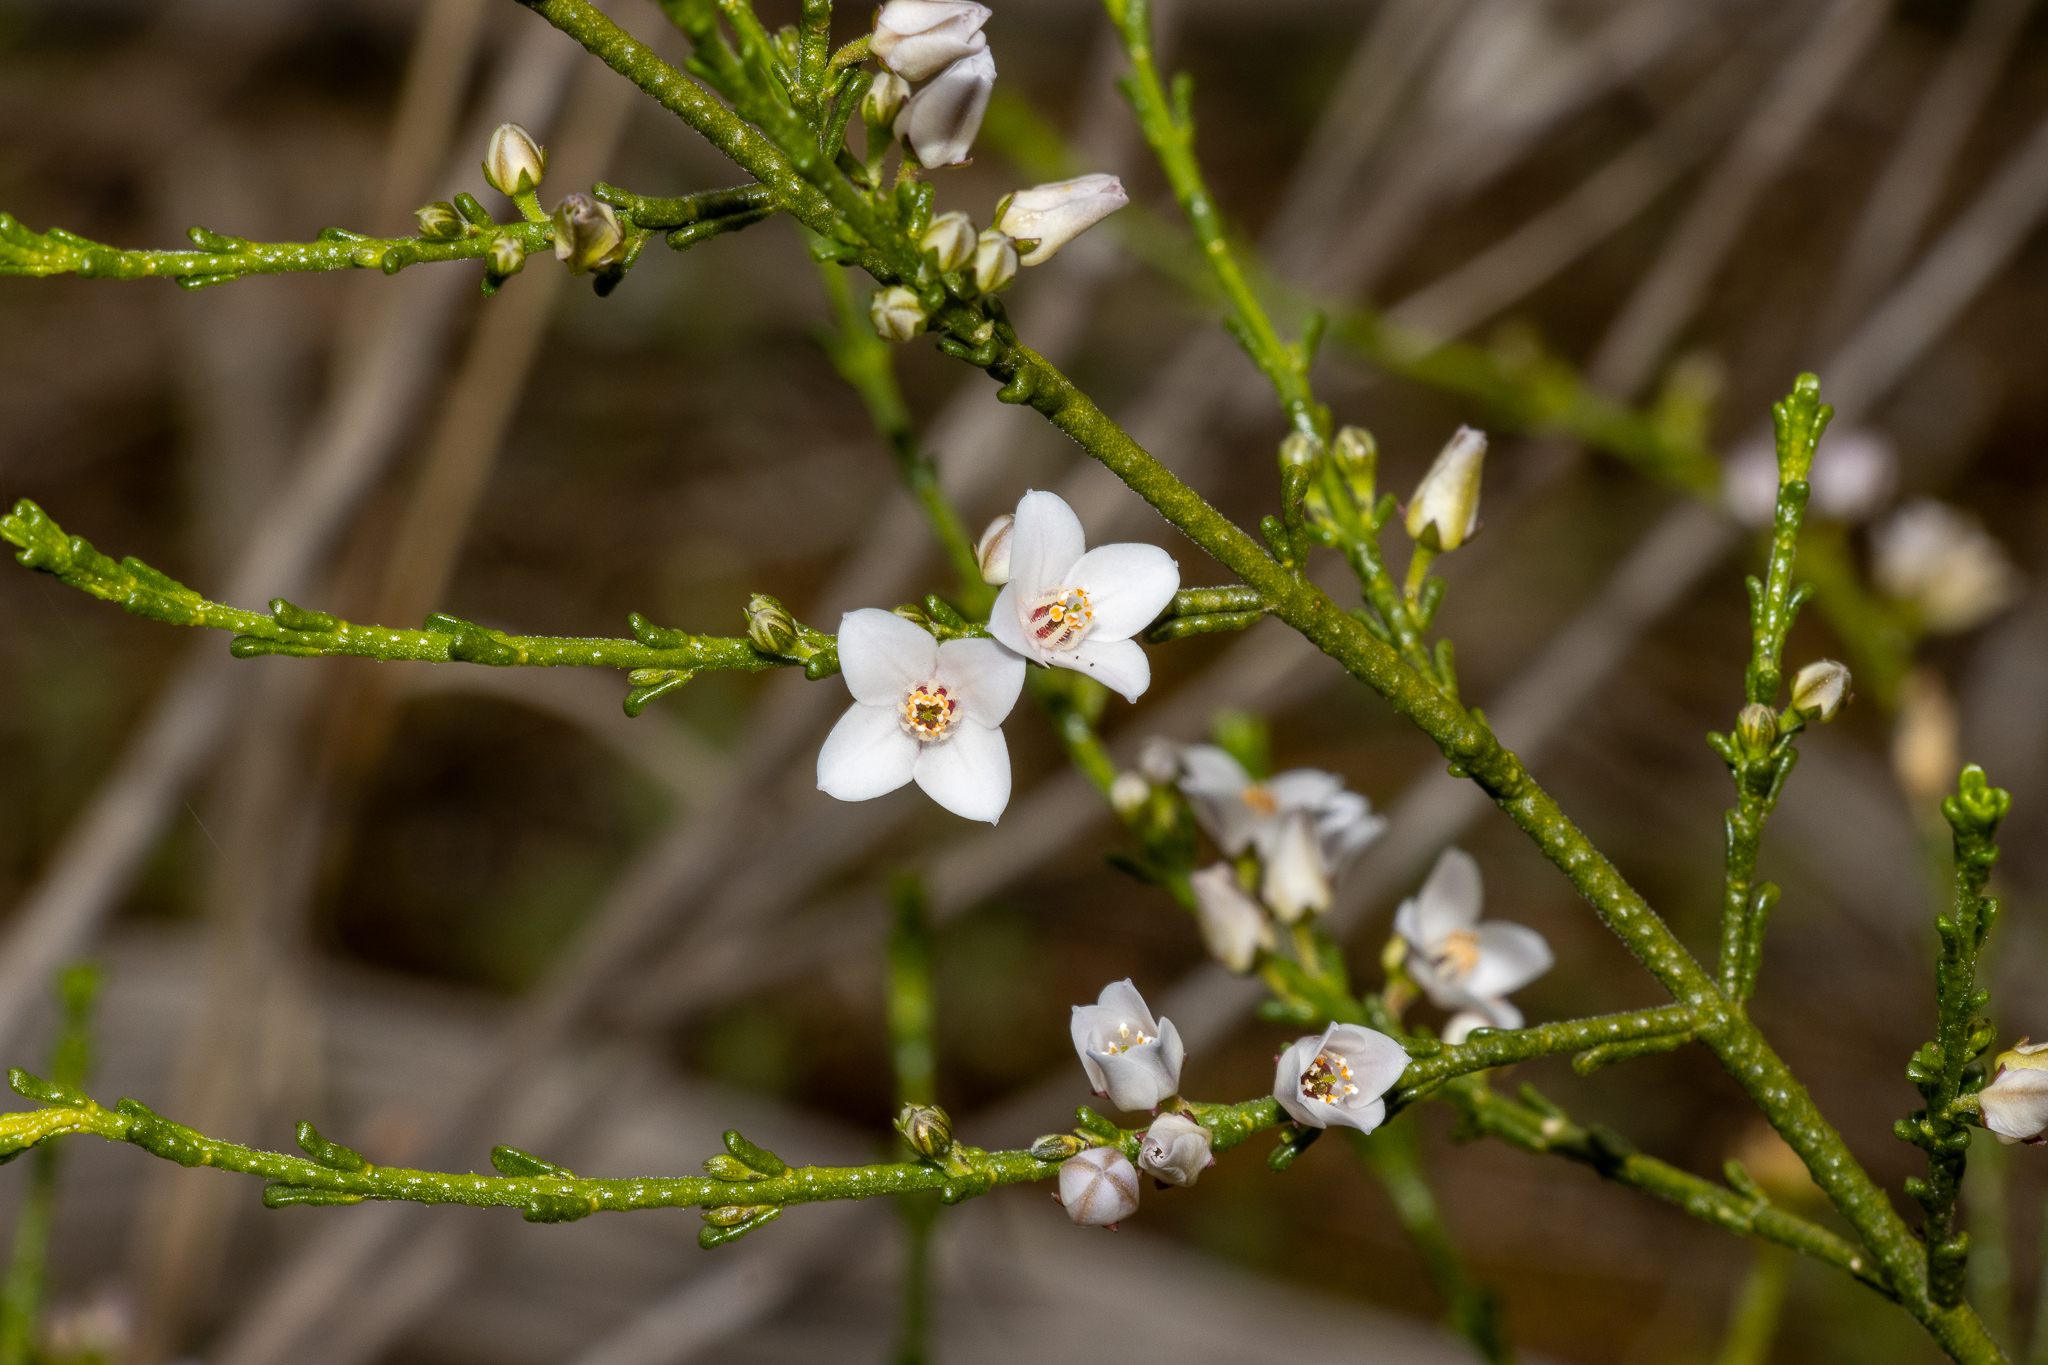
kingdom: Plantae
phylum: Tracheophyta
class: Magnoliopsida
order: Sapindales
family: Rutaceae
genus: Cyanothamnus
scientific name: Cyanothamnus coerulescens
